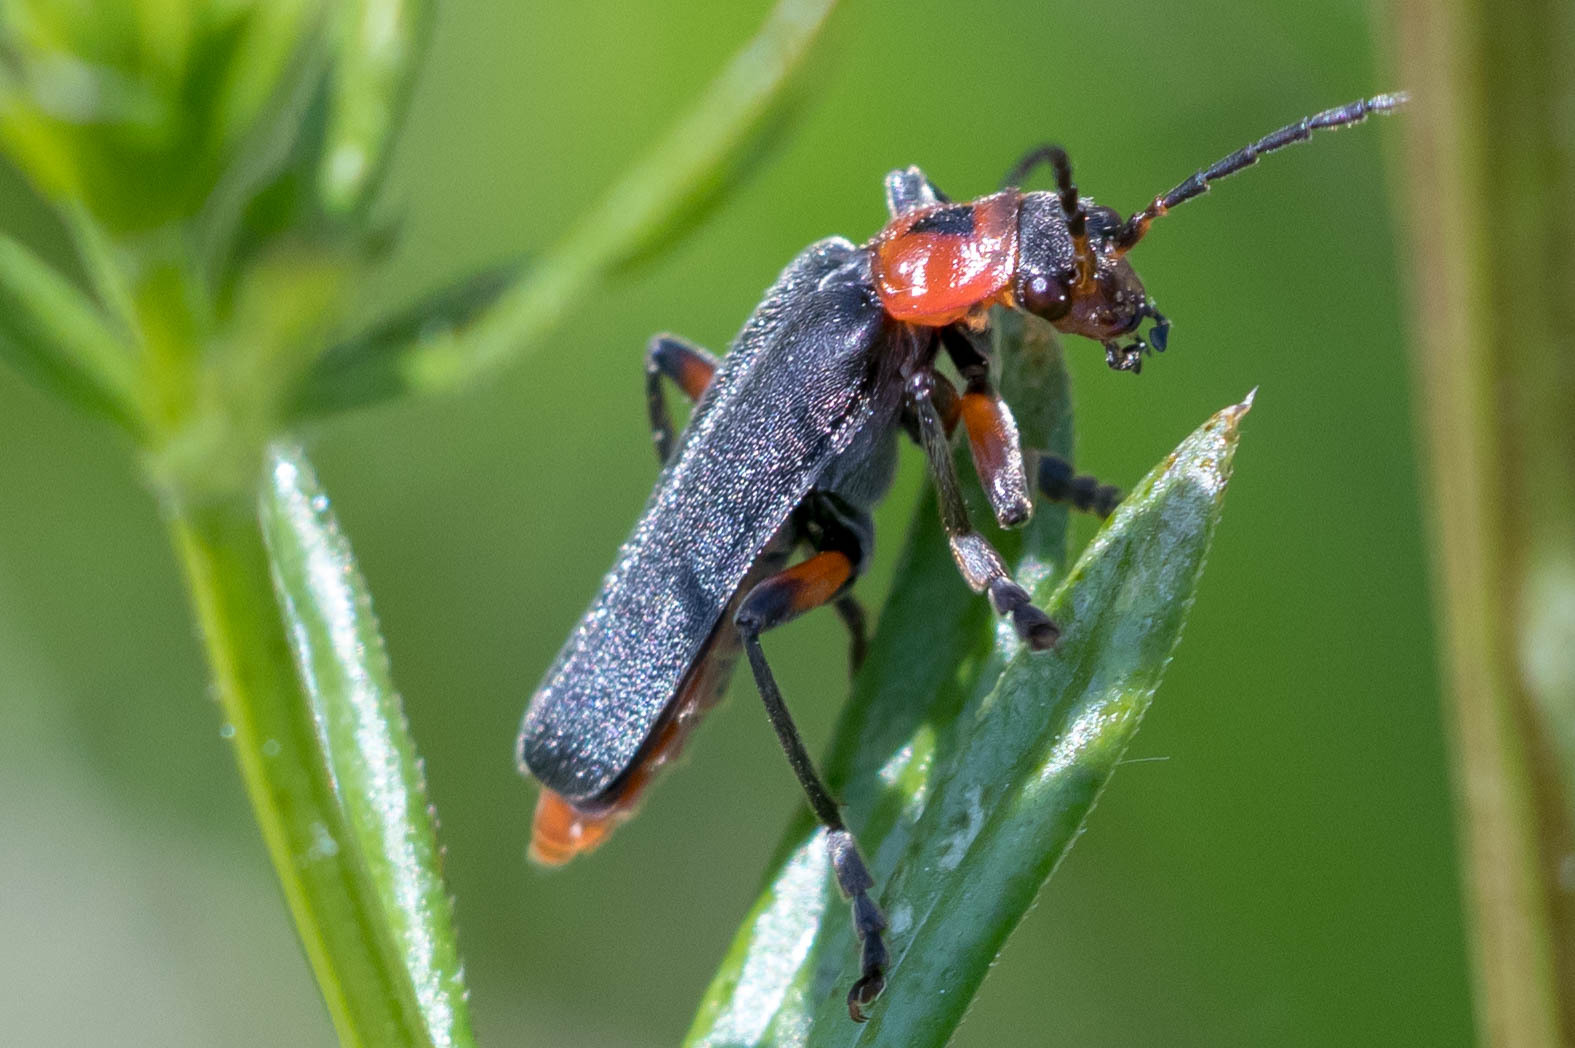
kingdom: Animalia
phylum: Arthropoda
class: Insecta
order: Coleoptera
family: Cantharidae
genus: Cantharis
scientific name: Cantharis rustica
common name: Soldier beetle
